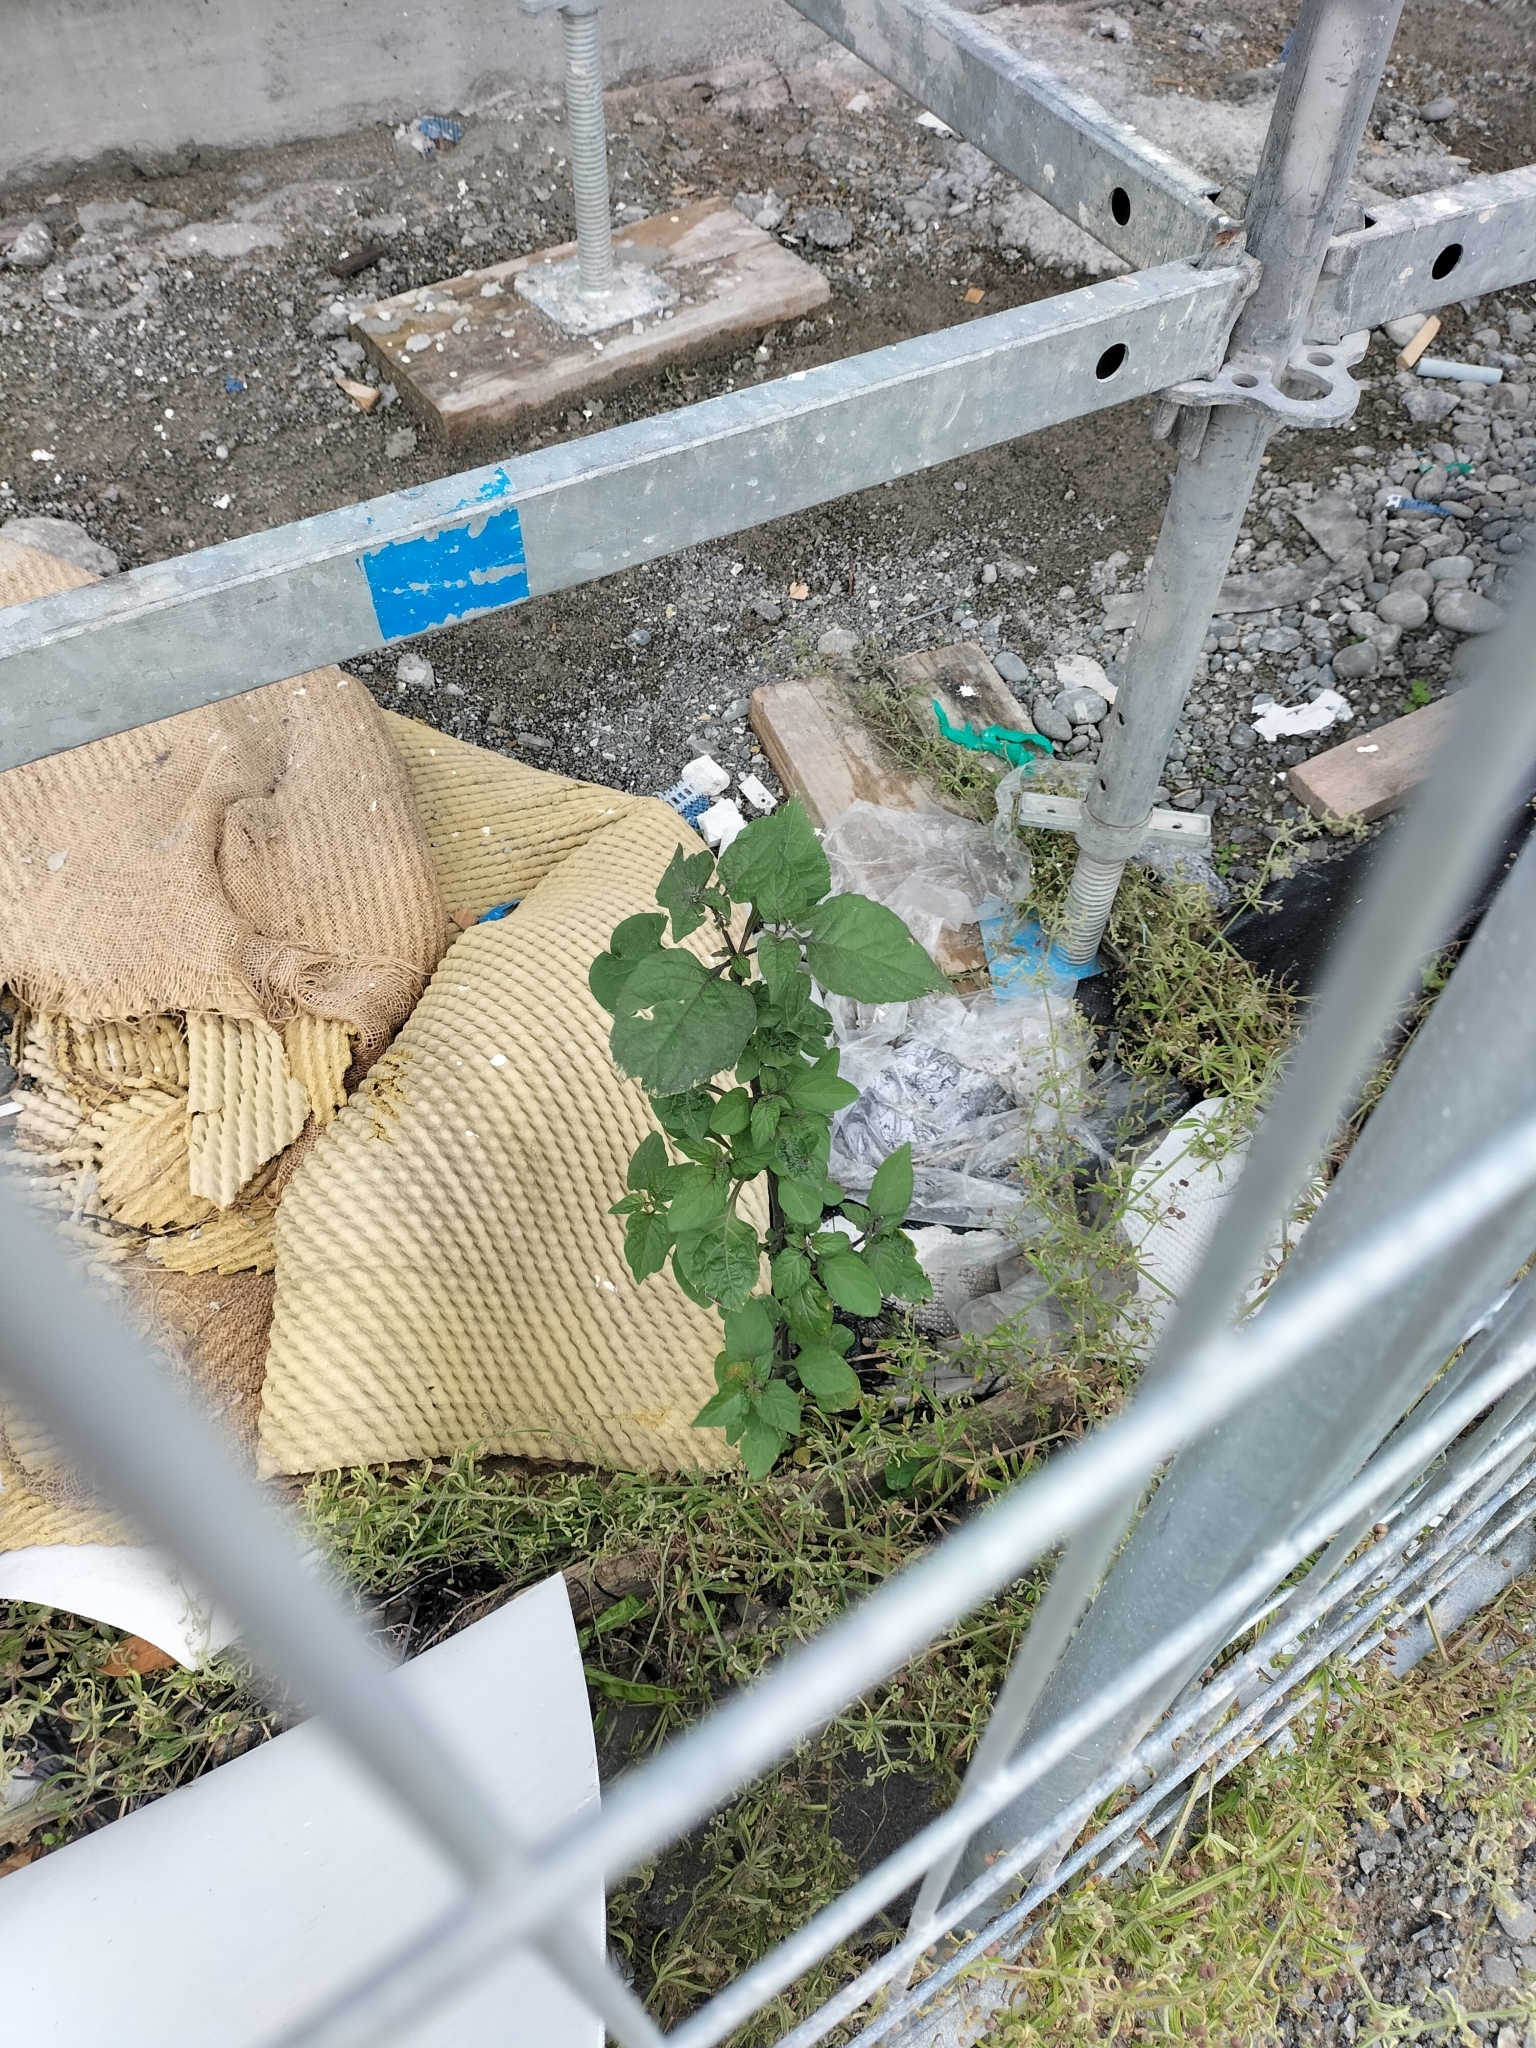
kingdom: Plantae
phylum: Tracheophyta
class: Magnoliopsida
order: Solanales
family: Solanaceae
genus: Solanum
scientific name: Solanum nigrum
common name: Black nightshade
